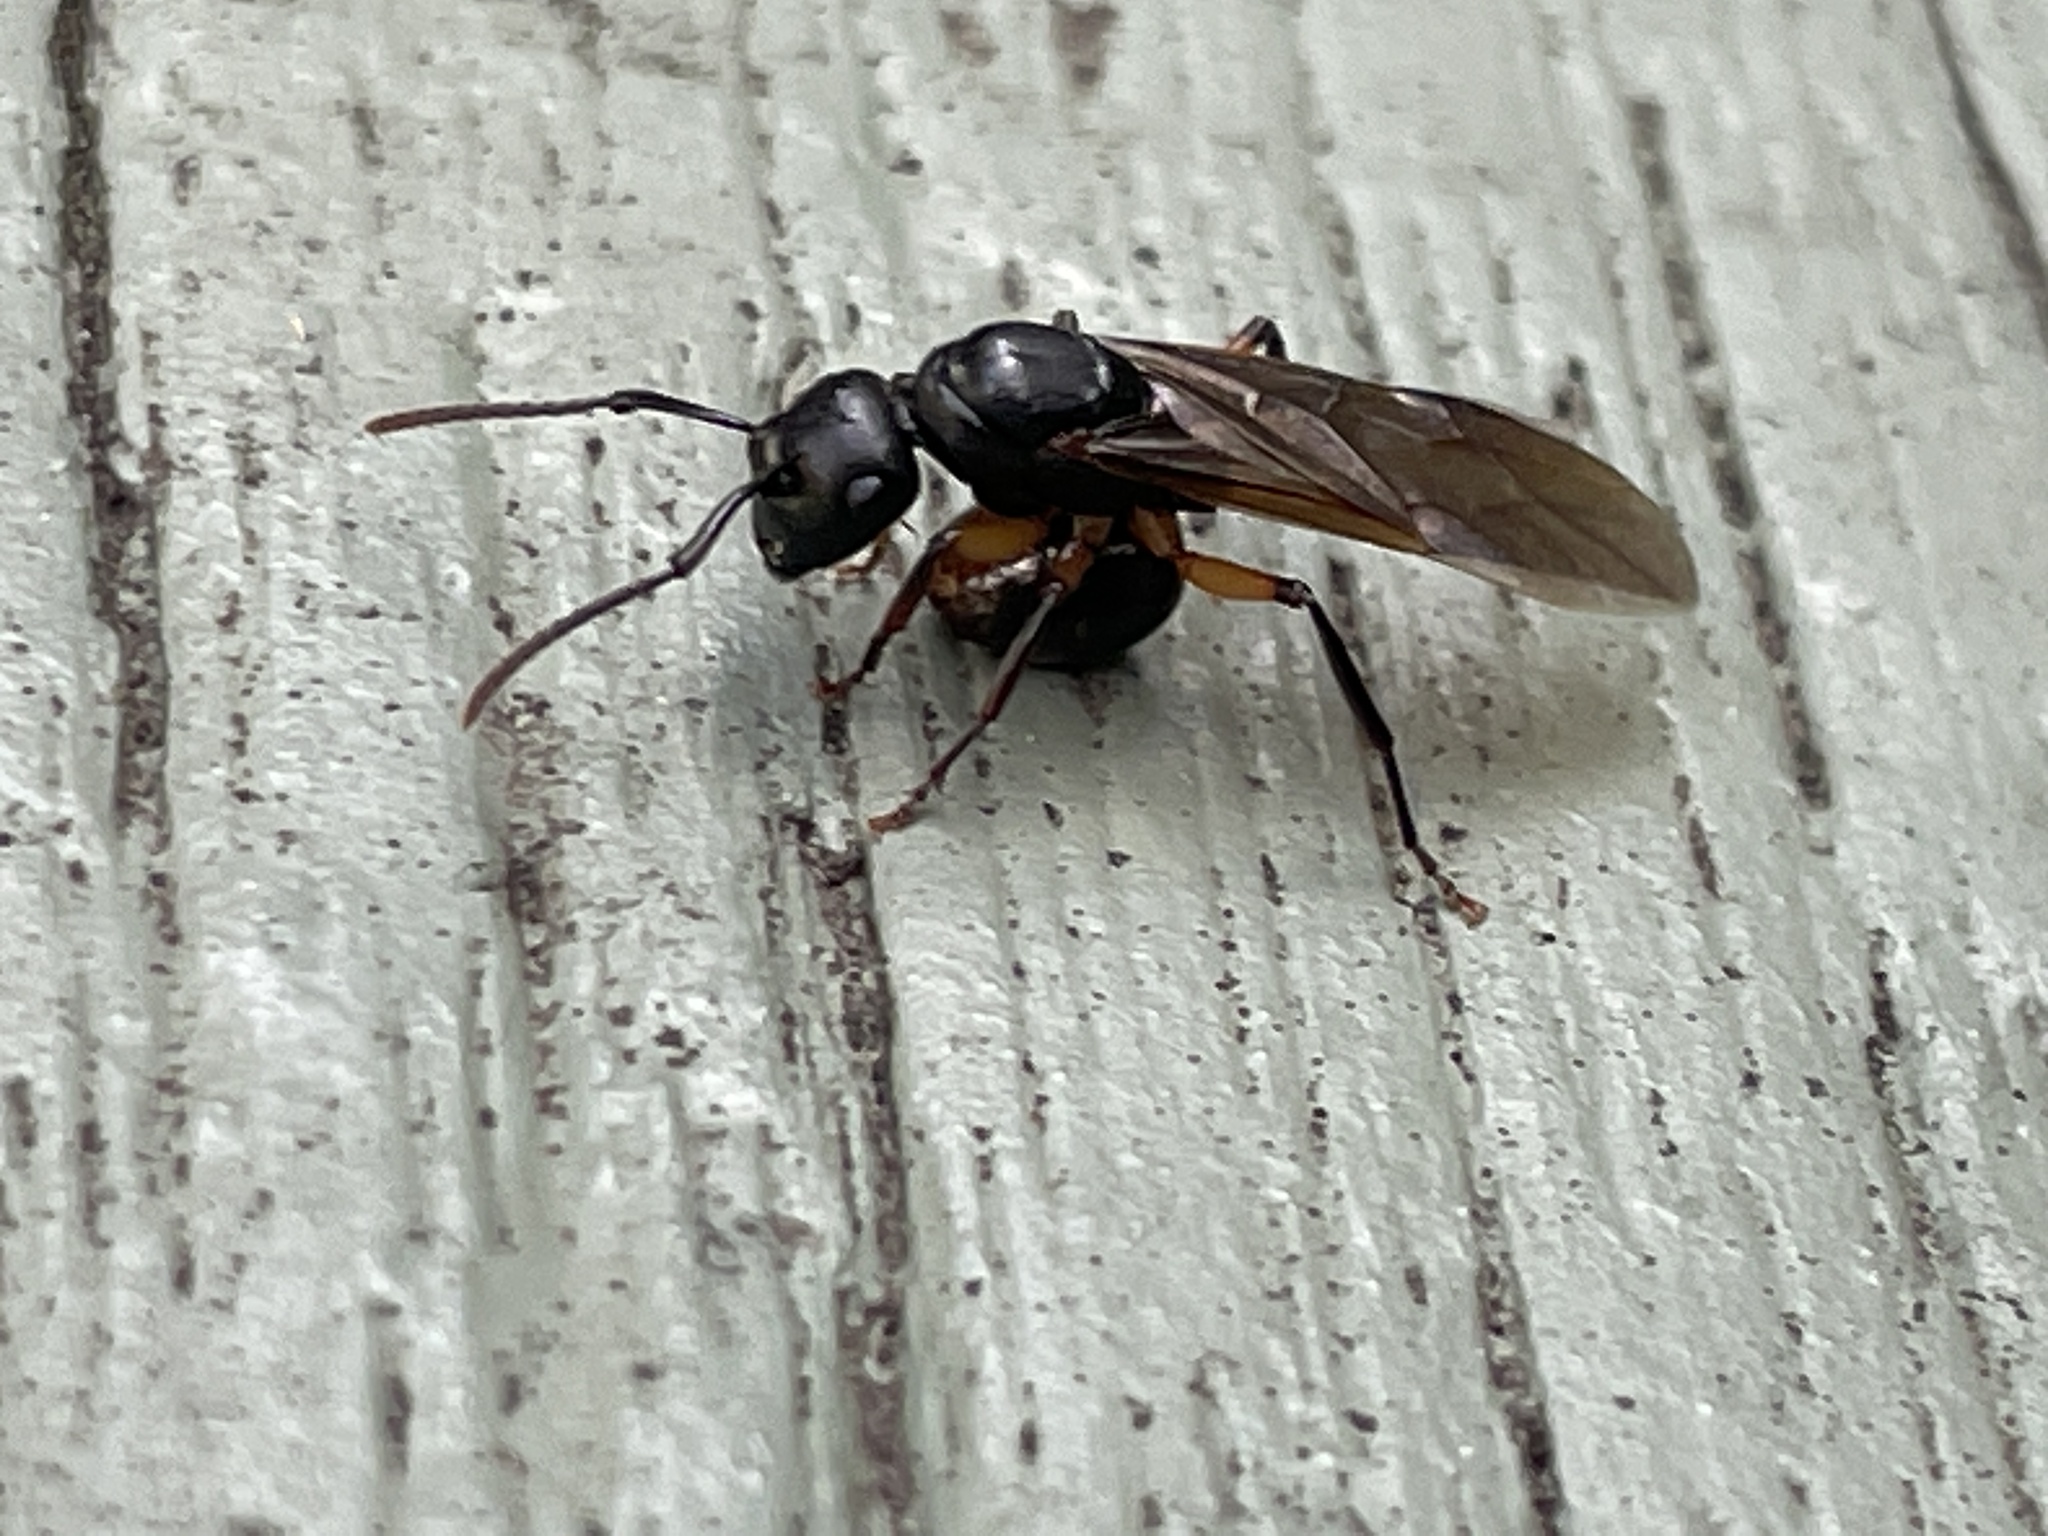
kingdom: Animalia
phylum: Arthropoda
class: Insecta
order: Hymenoptera
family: Formicidae
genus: Polyrhachis
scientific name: Polyrhachis femorata
